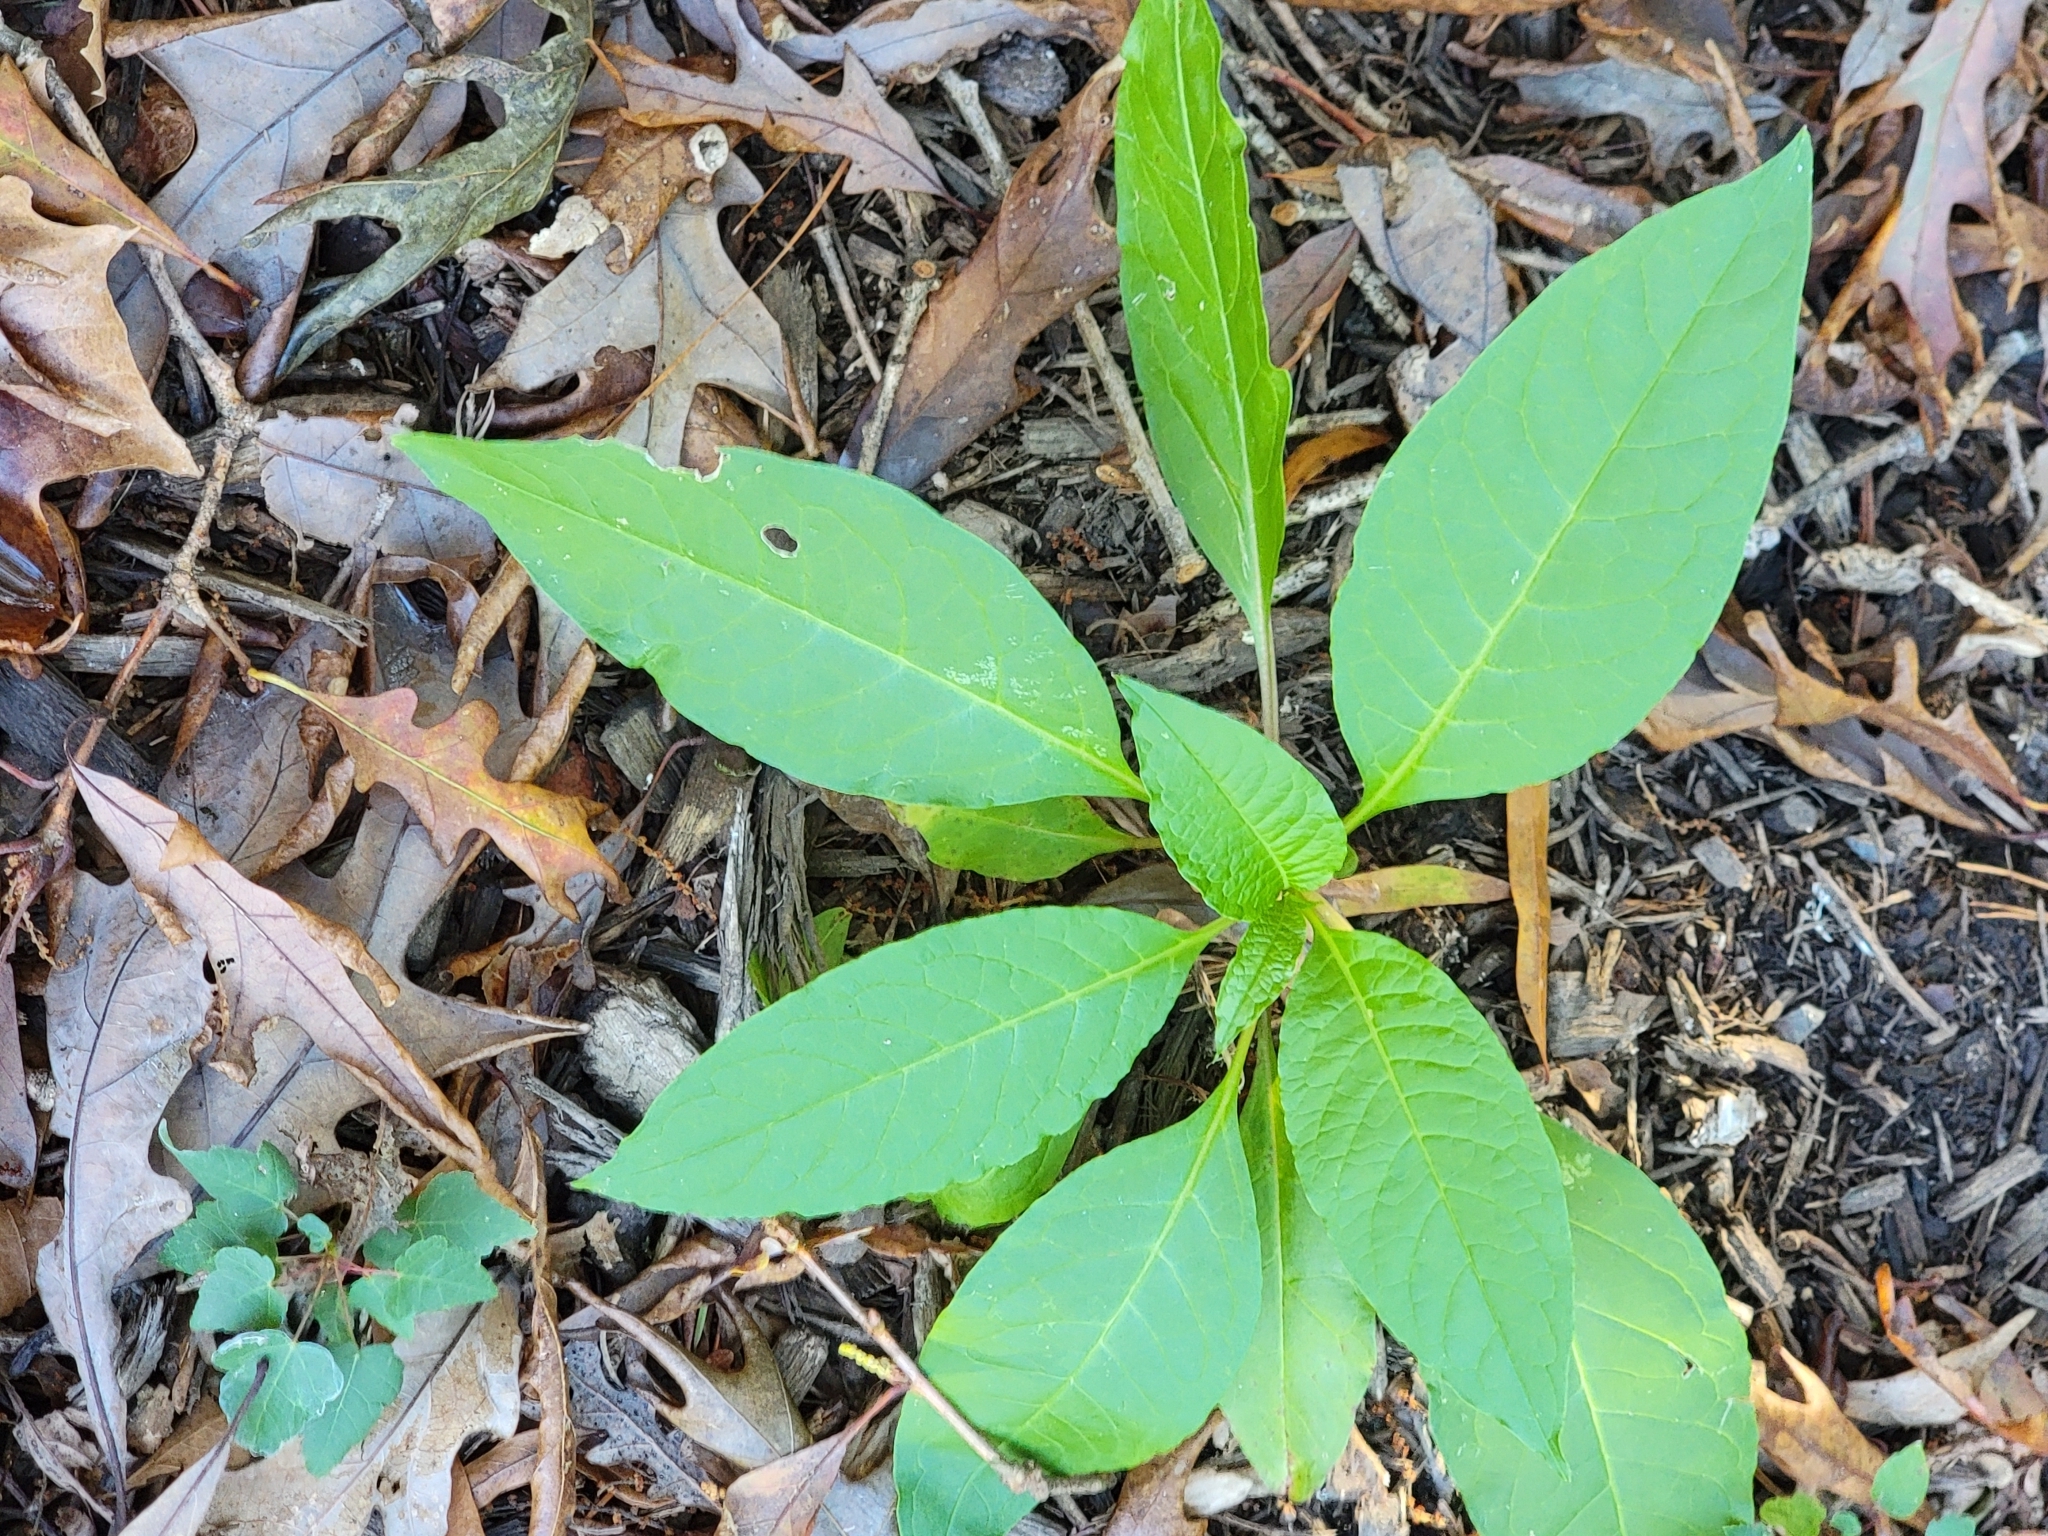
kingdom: Plantae
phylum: Tracheophyta
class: Magnoliopsida
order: Caryophyllales
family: Phytolaccaceae
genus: Phytolacca
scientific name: Phytolacca americana
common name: American pokeweed
